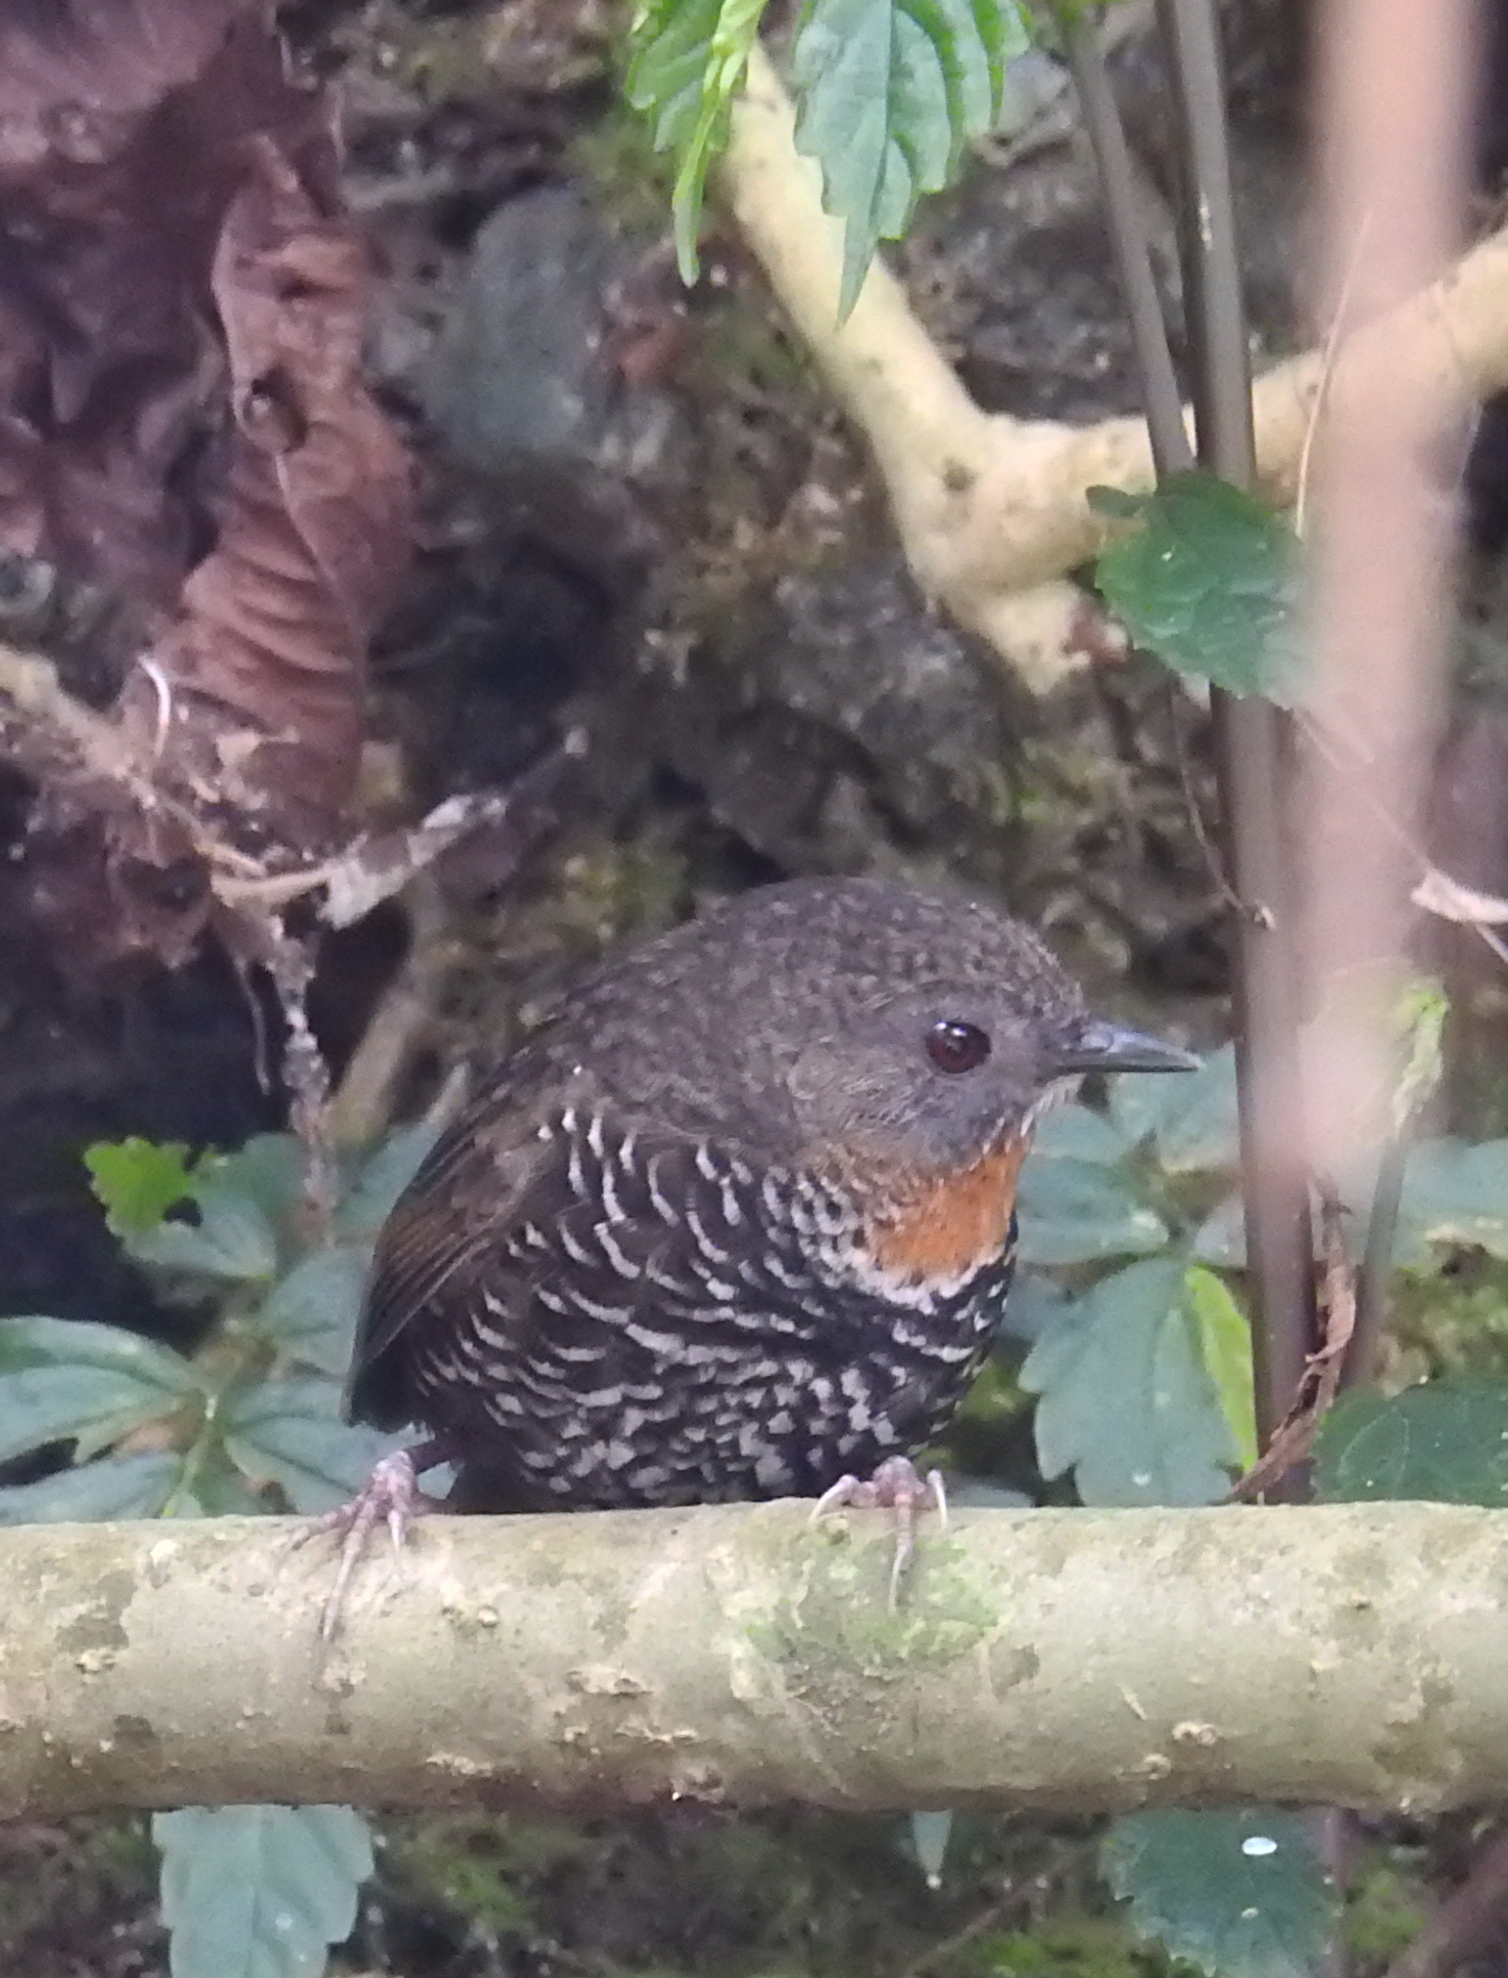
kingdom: Animalia
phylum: Chordata
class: Aves
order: Passeriformes
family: Timaliidae
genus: Spelaeornis
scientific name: Spelaeornis badeigularis
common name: Rusty-throated wren-babbler
